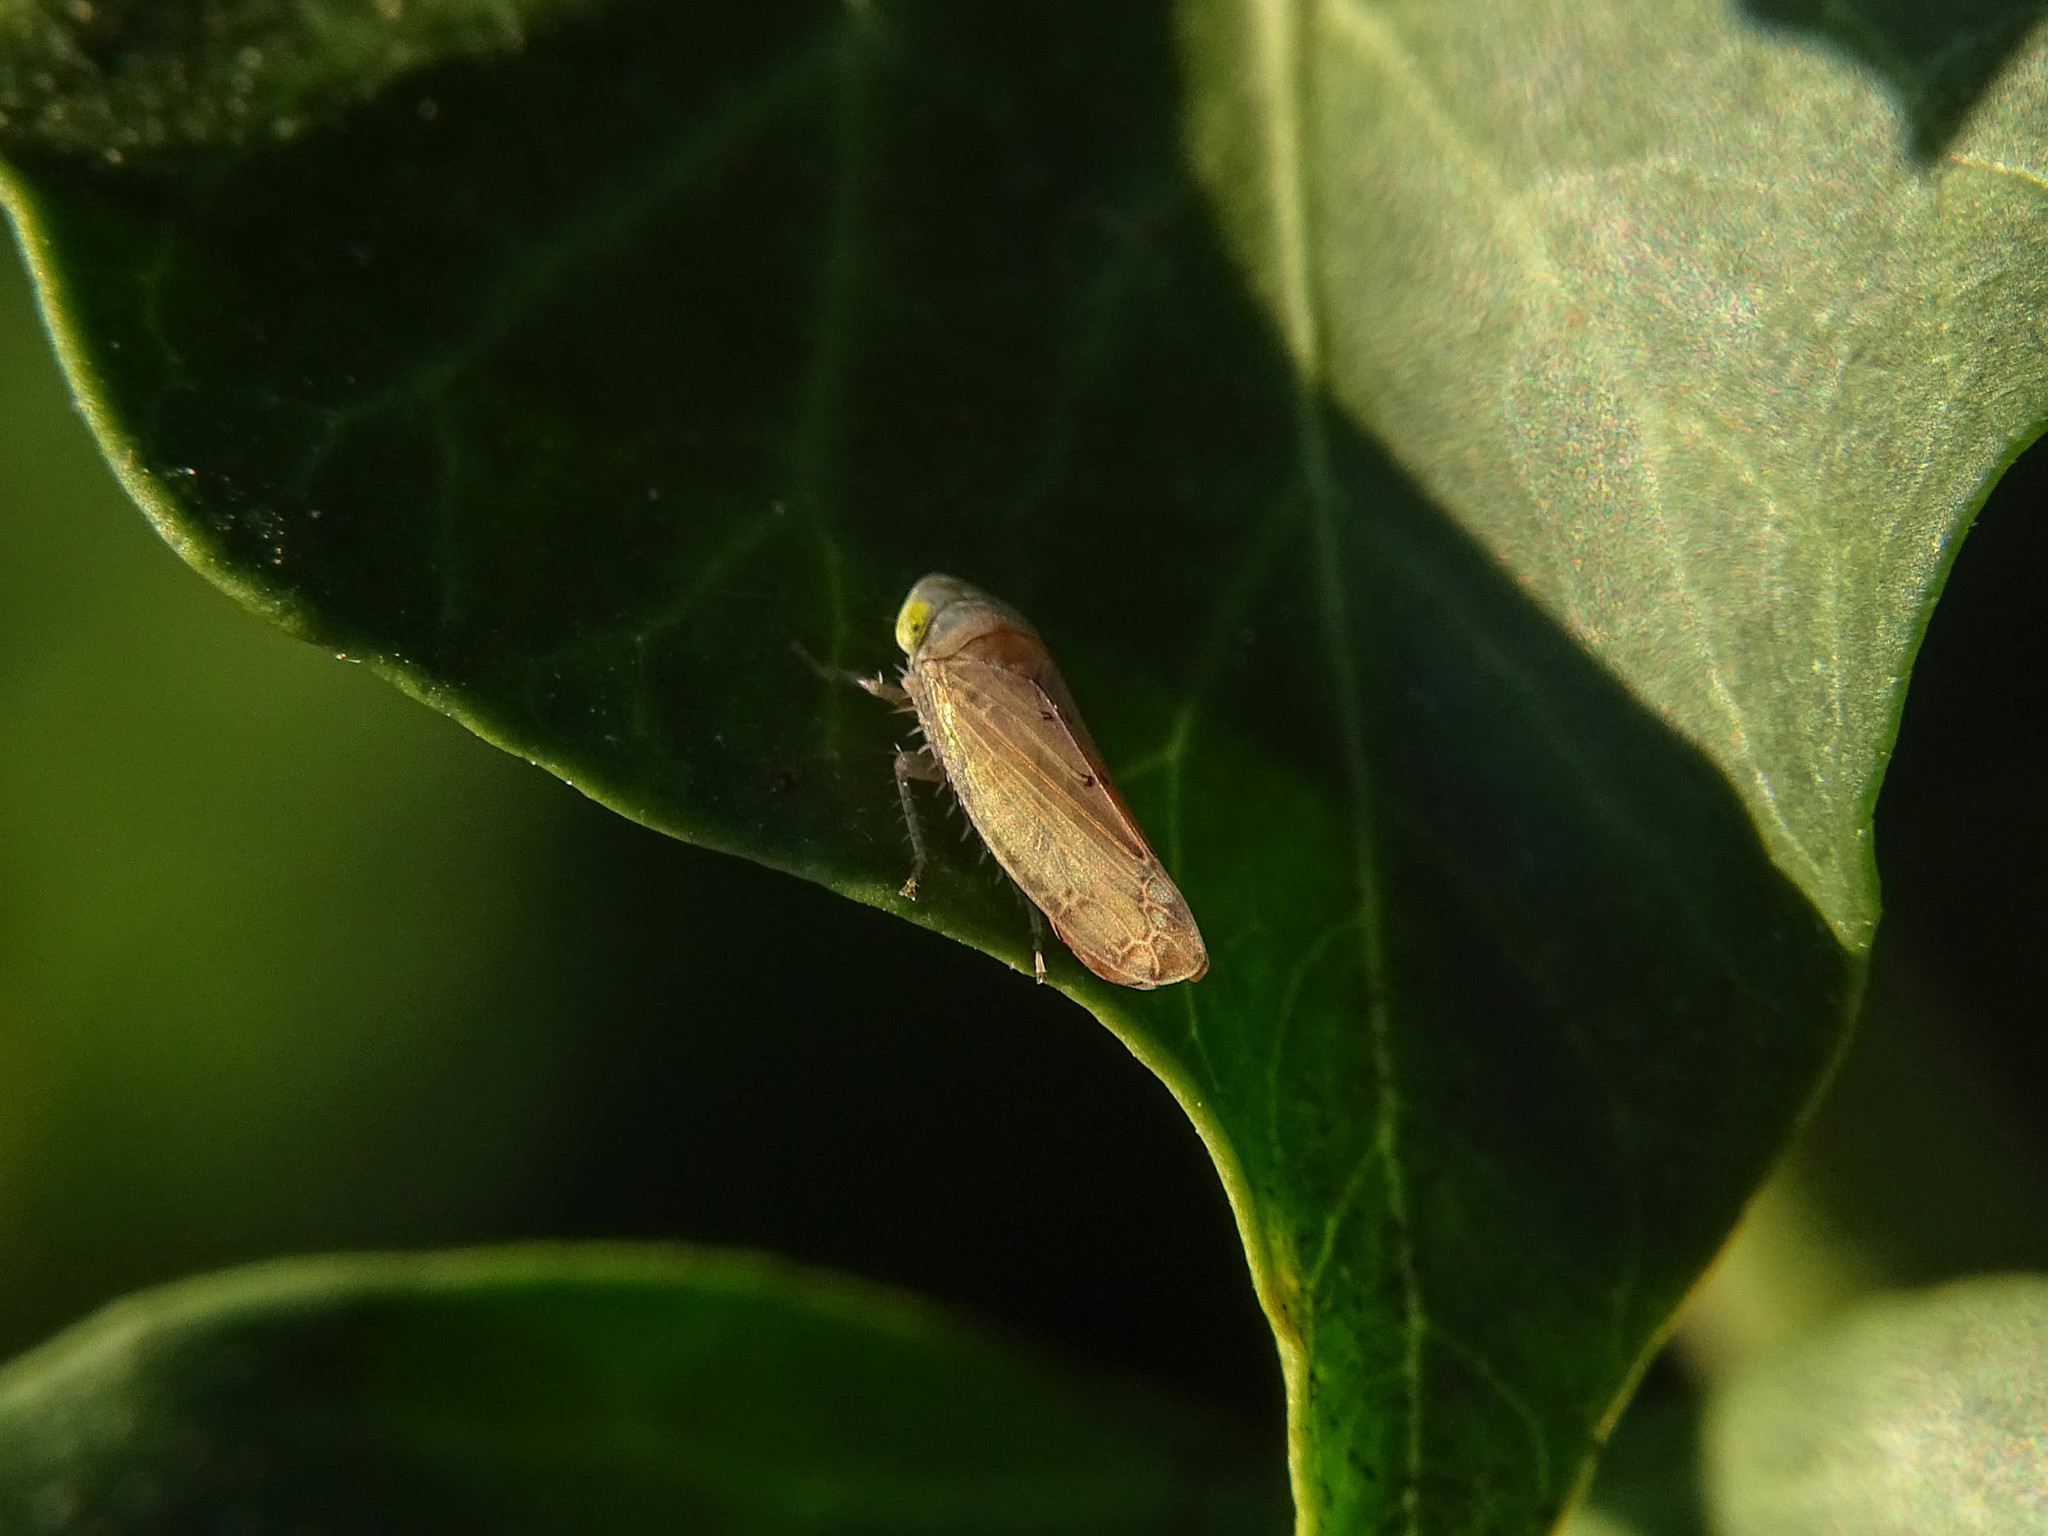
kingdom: Animalia
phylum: Arthropoda
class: Insecta
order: Hemiptera
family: Cicadellidae
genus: Synophropsis
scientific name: Synophropsis lauri
